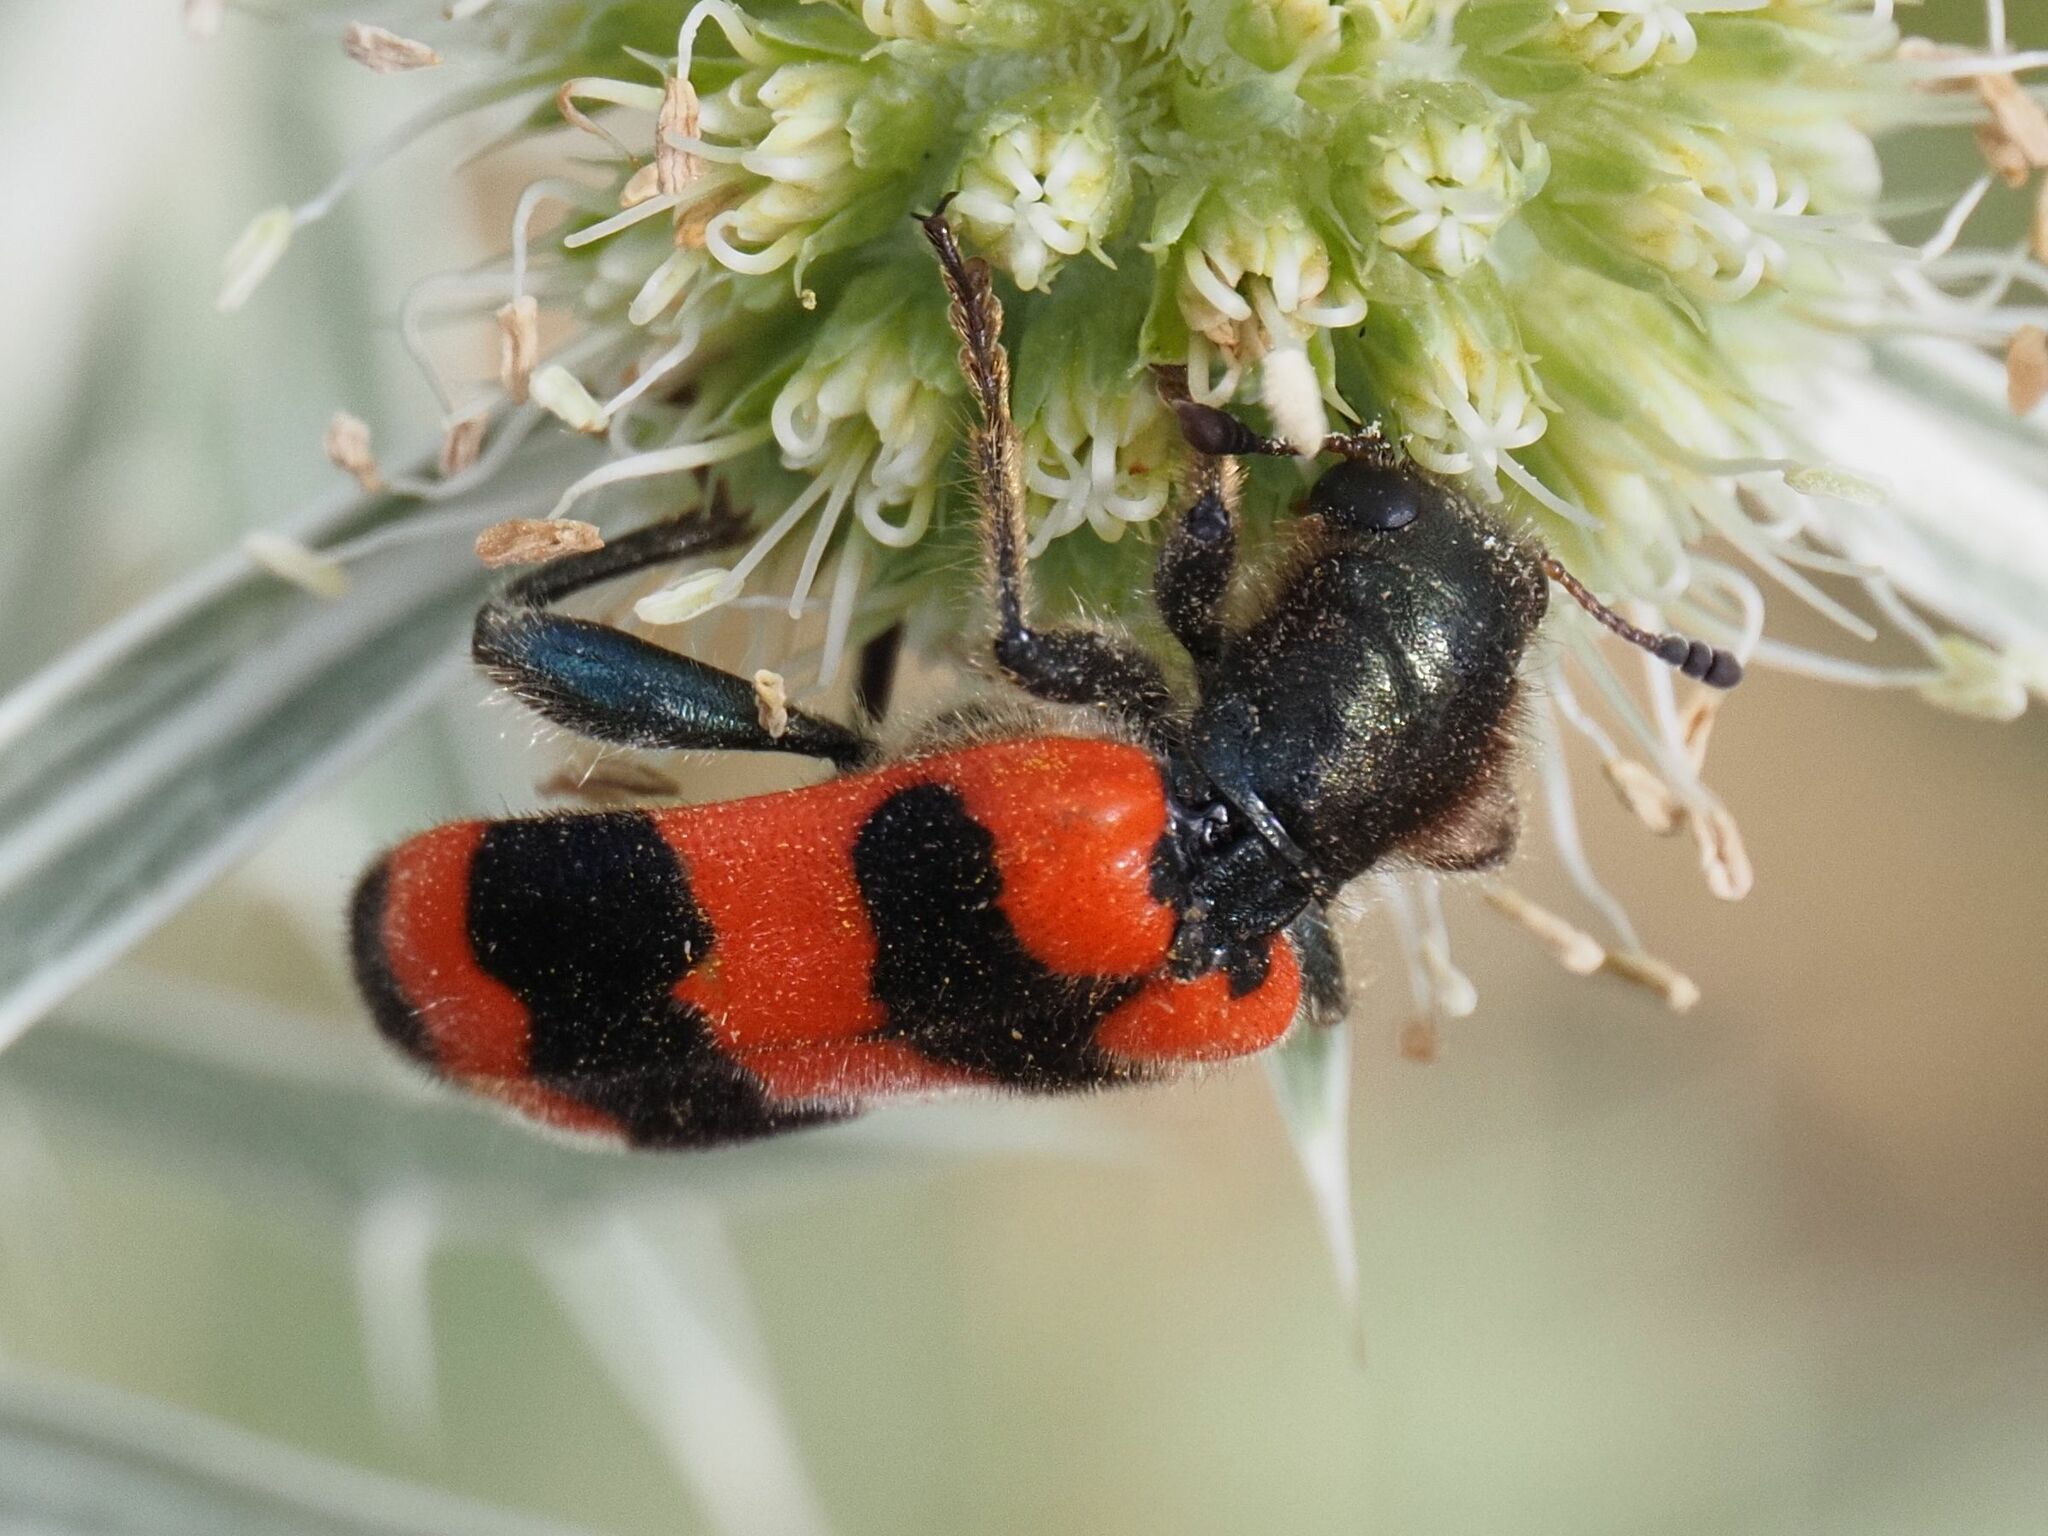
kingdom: Animalia
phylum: Arthropoda
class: Insecta
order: Coleoptera
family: Cleridae
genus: Trichodes
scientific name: Trichodes apiarius
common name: Bee-eating beetle
